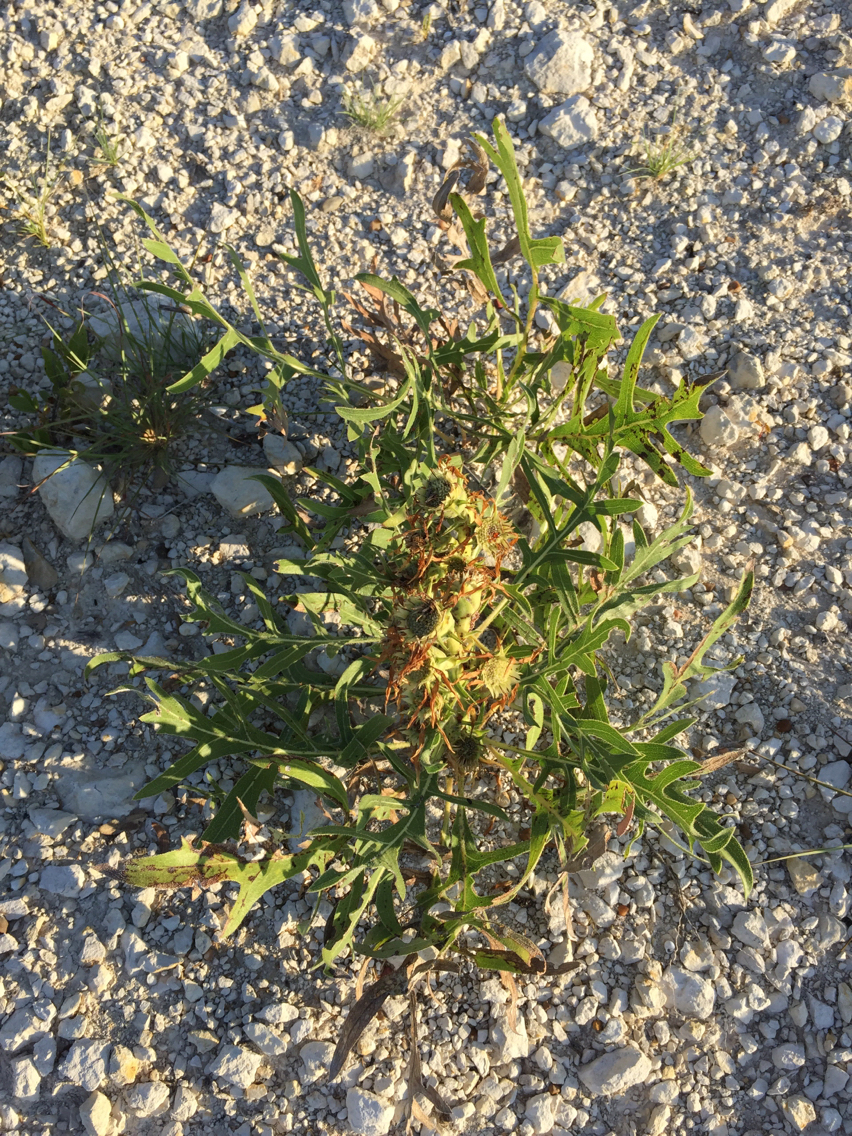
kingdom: Plantae
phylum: Tracheophyta
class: Magnoliopsida
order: Asterales
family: Asteraceae
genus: Silphium
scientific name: Silphium albiflorum
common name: White rosinweed
